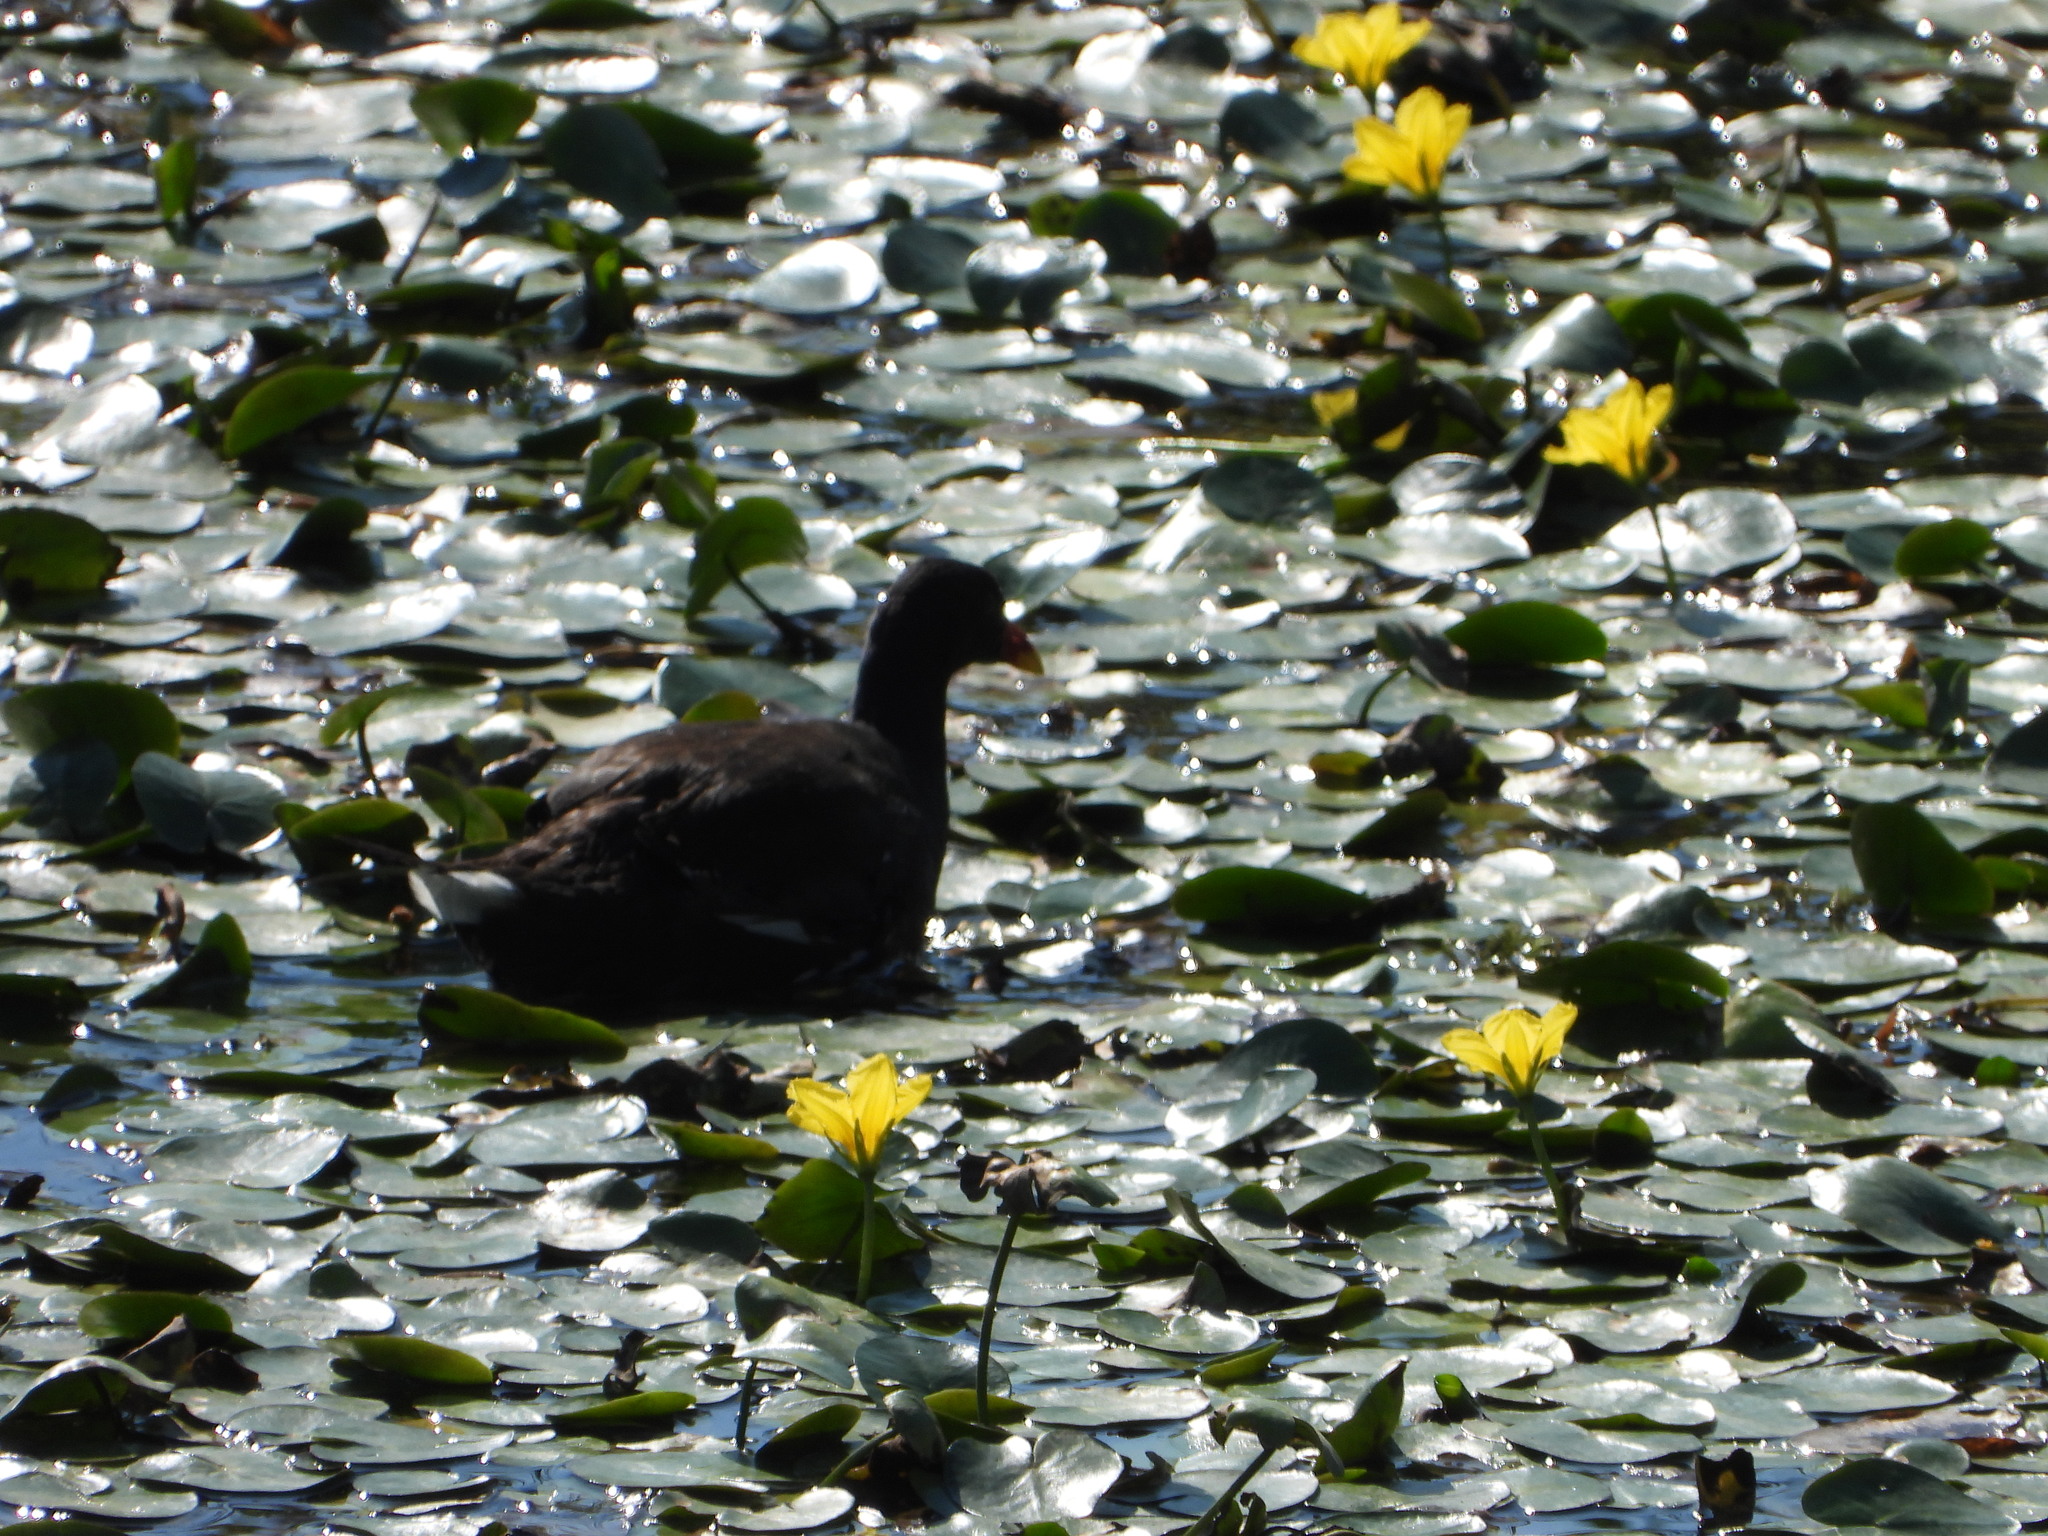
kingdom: Animalia
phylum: Chordata
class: Aves
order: Gruiformes
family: Rallidae
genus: Gallinula
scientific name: Gallinula chloropus
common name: Common moorhen
